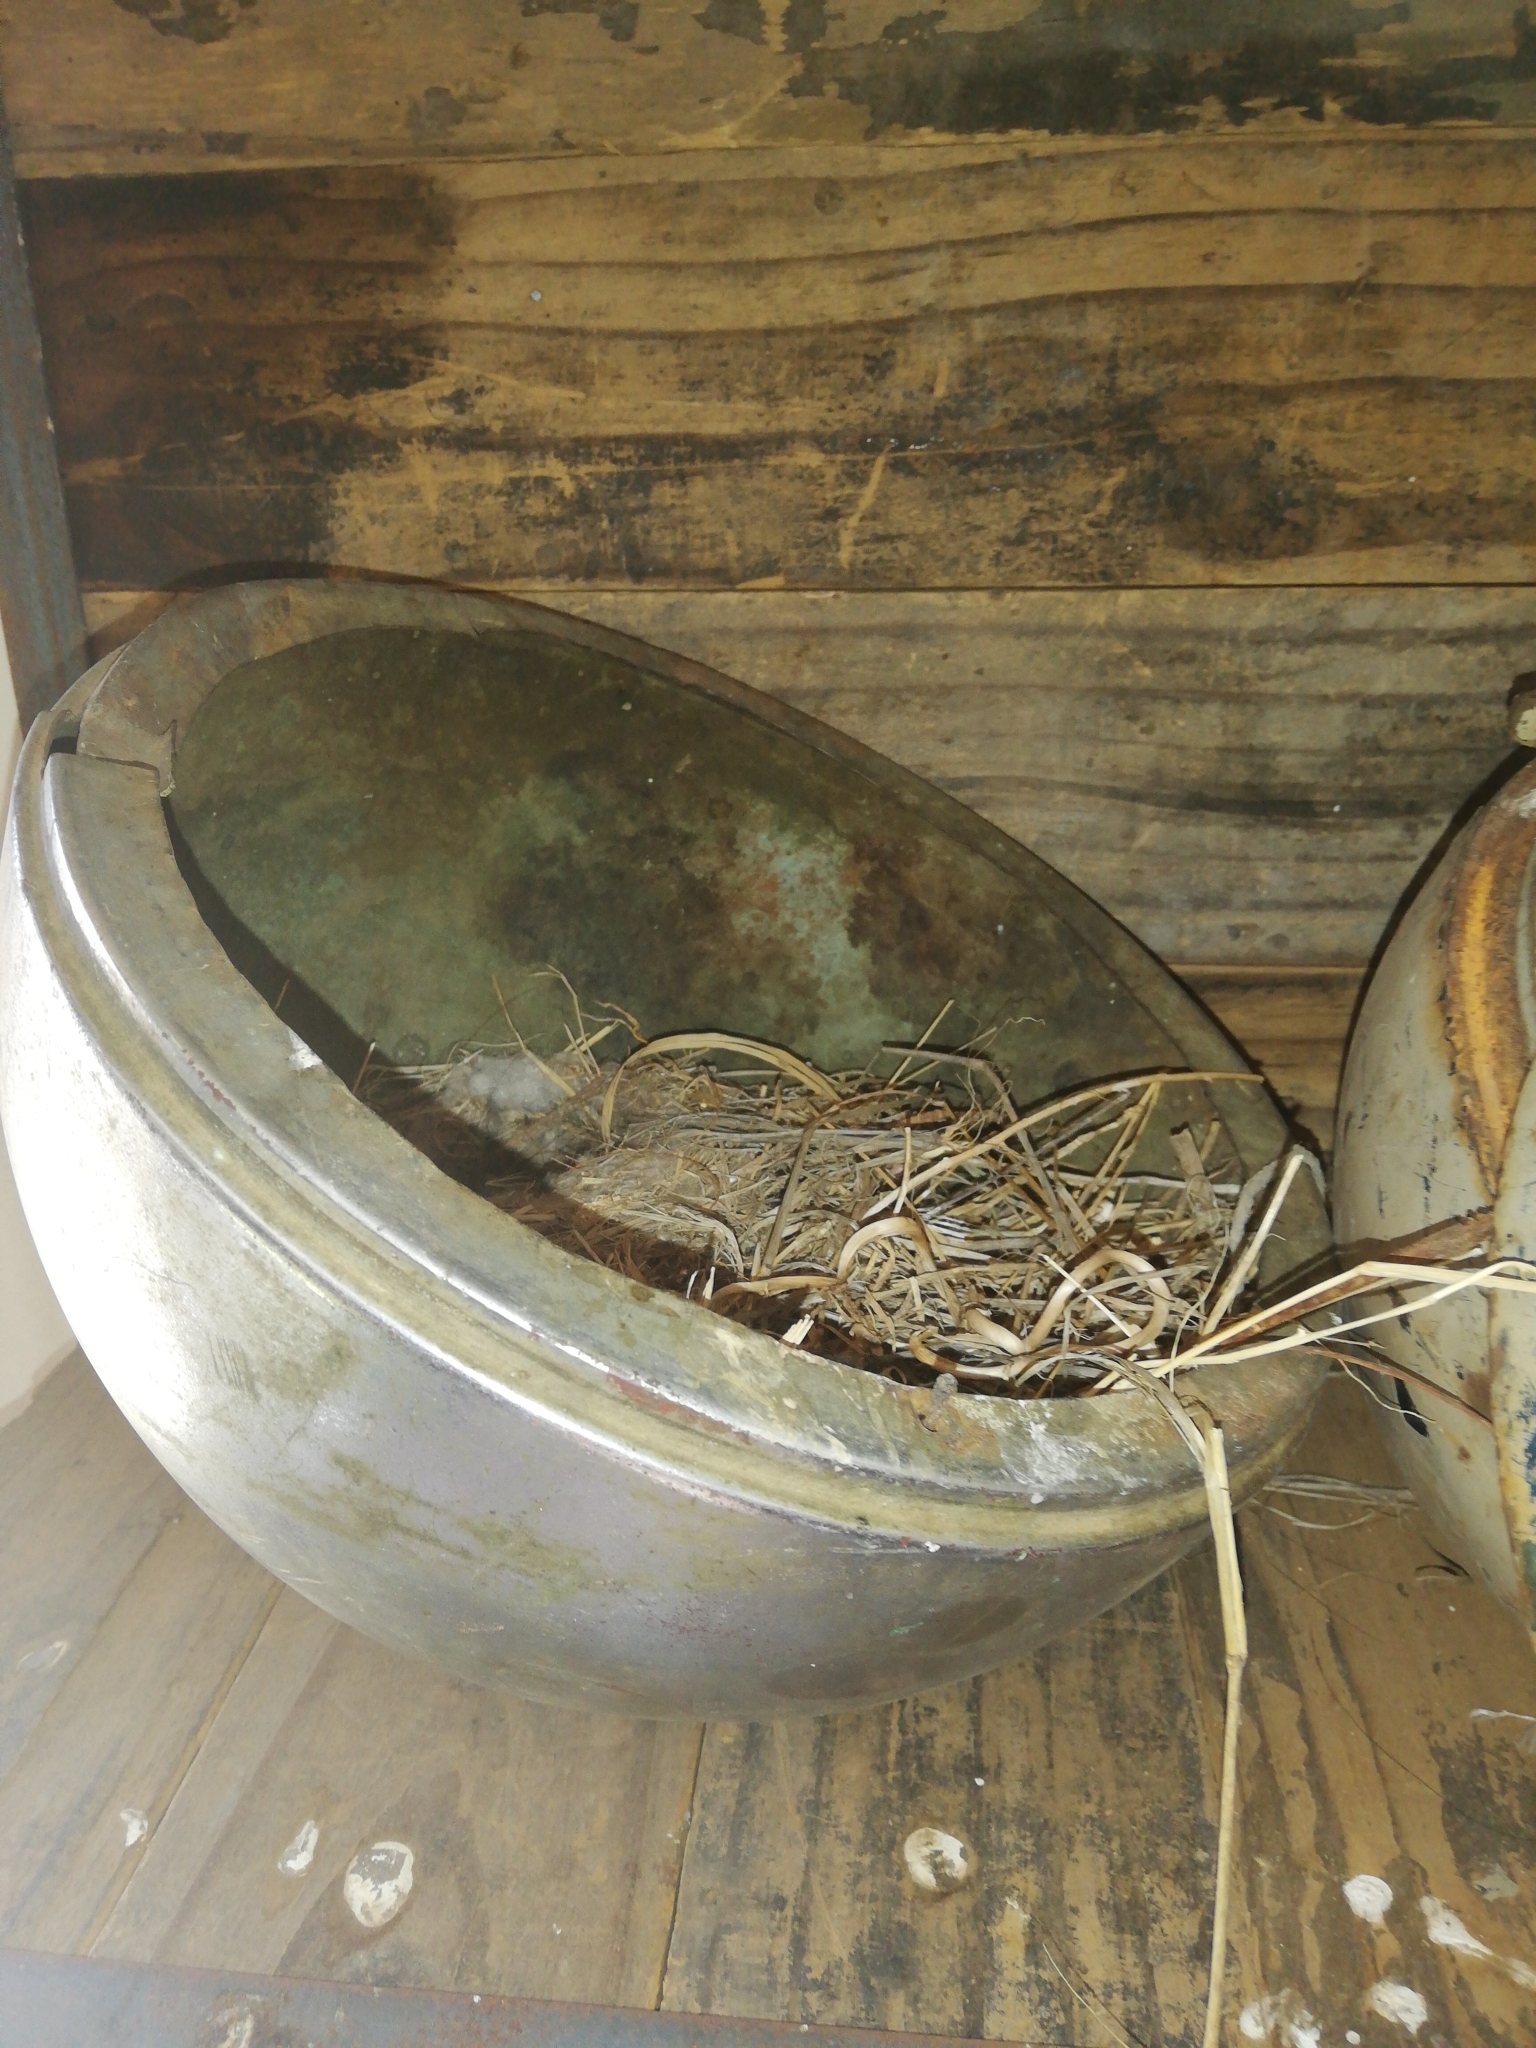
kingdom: Animalia
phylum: Chordata
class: Aves
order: Passeriformes
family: Motacillidae
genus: Motacilla
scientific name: Motacilla capensis
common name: Cape wagtail
